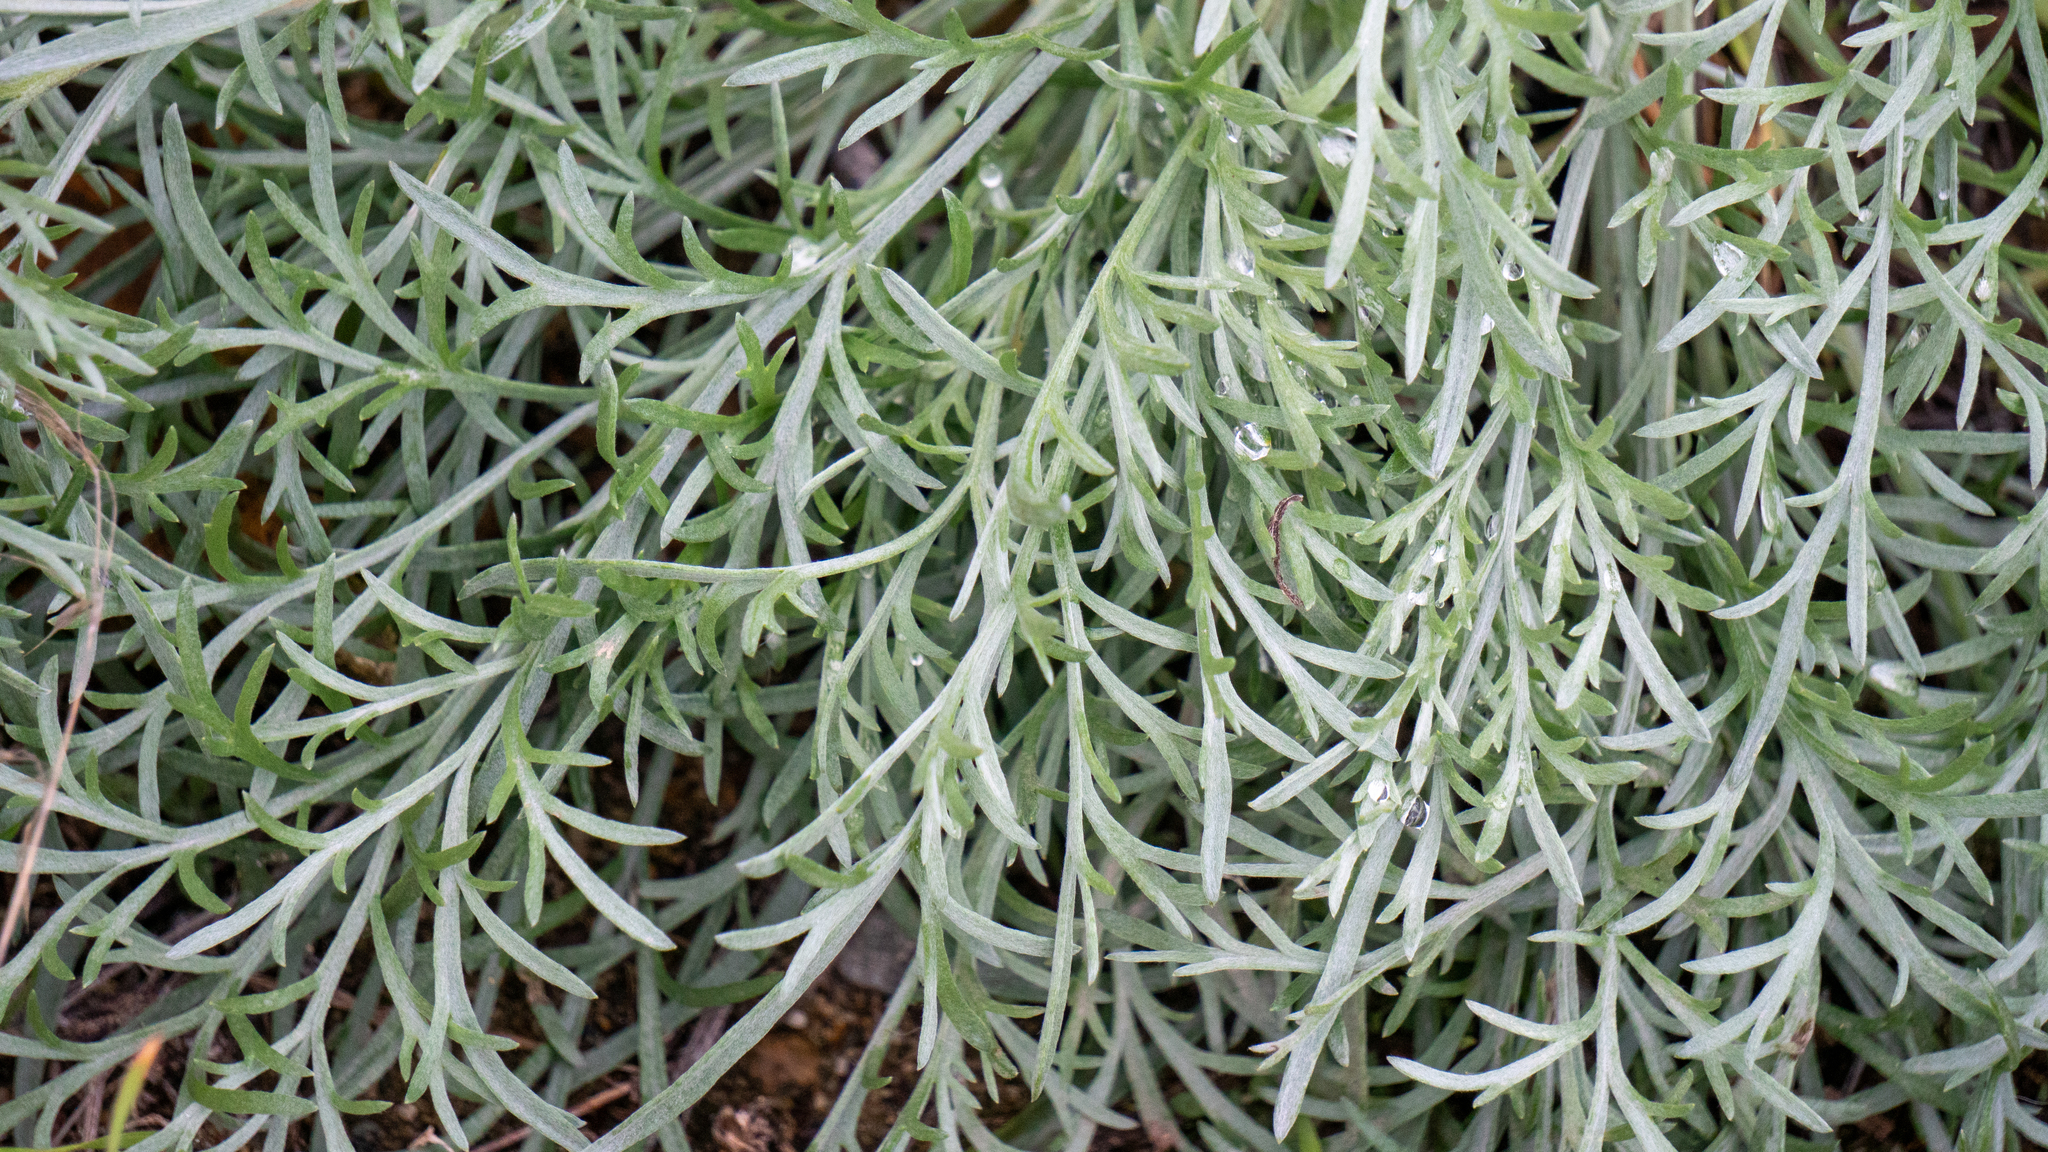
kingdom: Plantae
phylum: Tracheophyta
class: Magnoliopsida
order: Asterales
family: Asteraceae
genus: Artemisia
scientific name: Artemisia campestris
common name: Field wormwood
